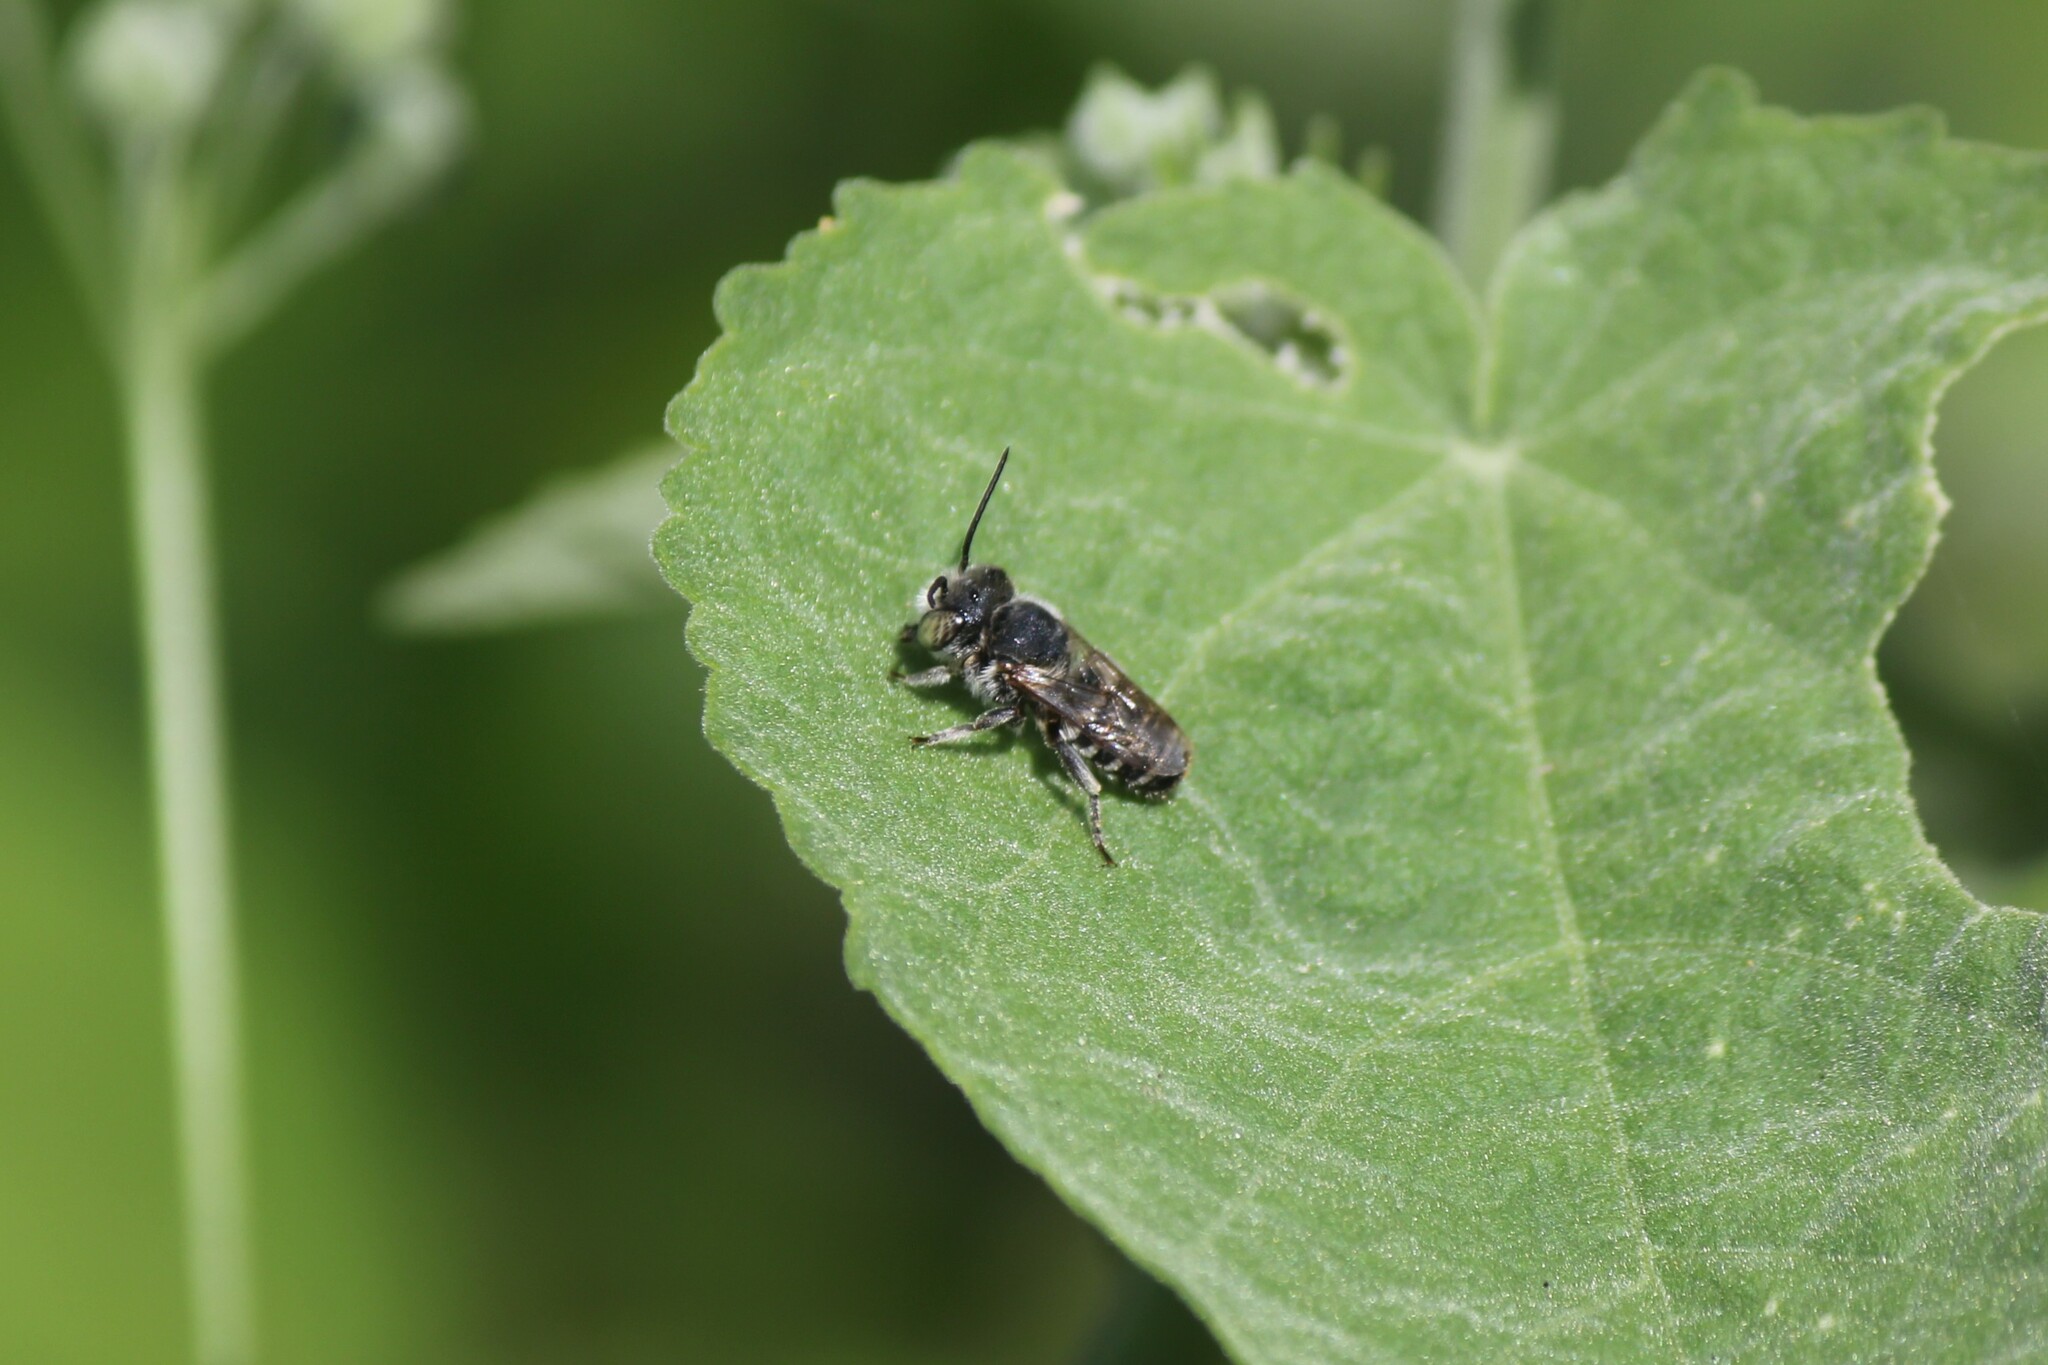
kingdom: Animalia
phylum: Arthropoda
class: Insecta
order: Hymenoptera
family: Megachilidae
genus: Megachile
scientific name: Megachile pusilla
